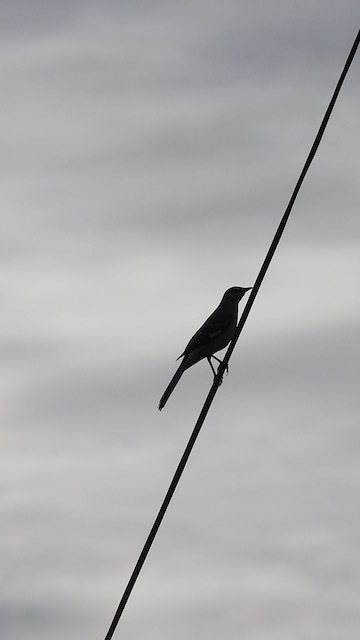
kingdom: Animalia
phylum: Chordata
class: Aves
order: Passeriformes
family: Mimidae
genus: Mimus
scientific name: Mimus polyglottos
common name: Northern mockingbird
